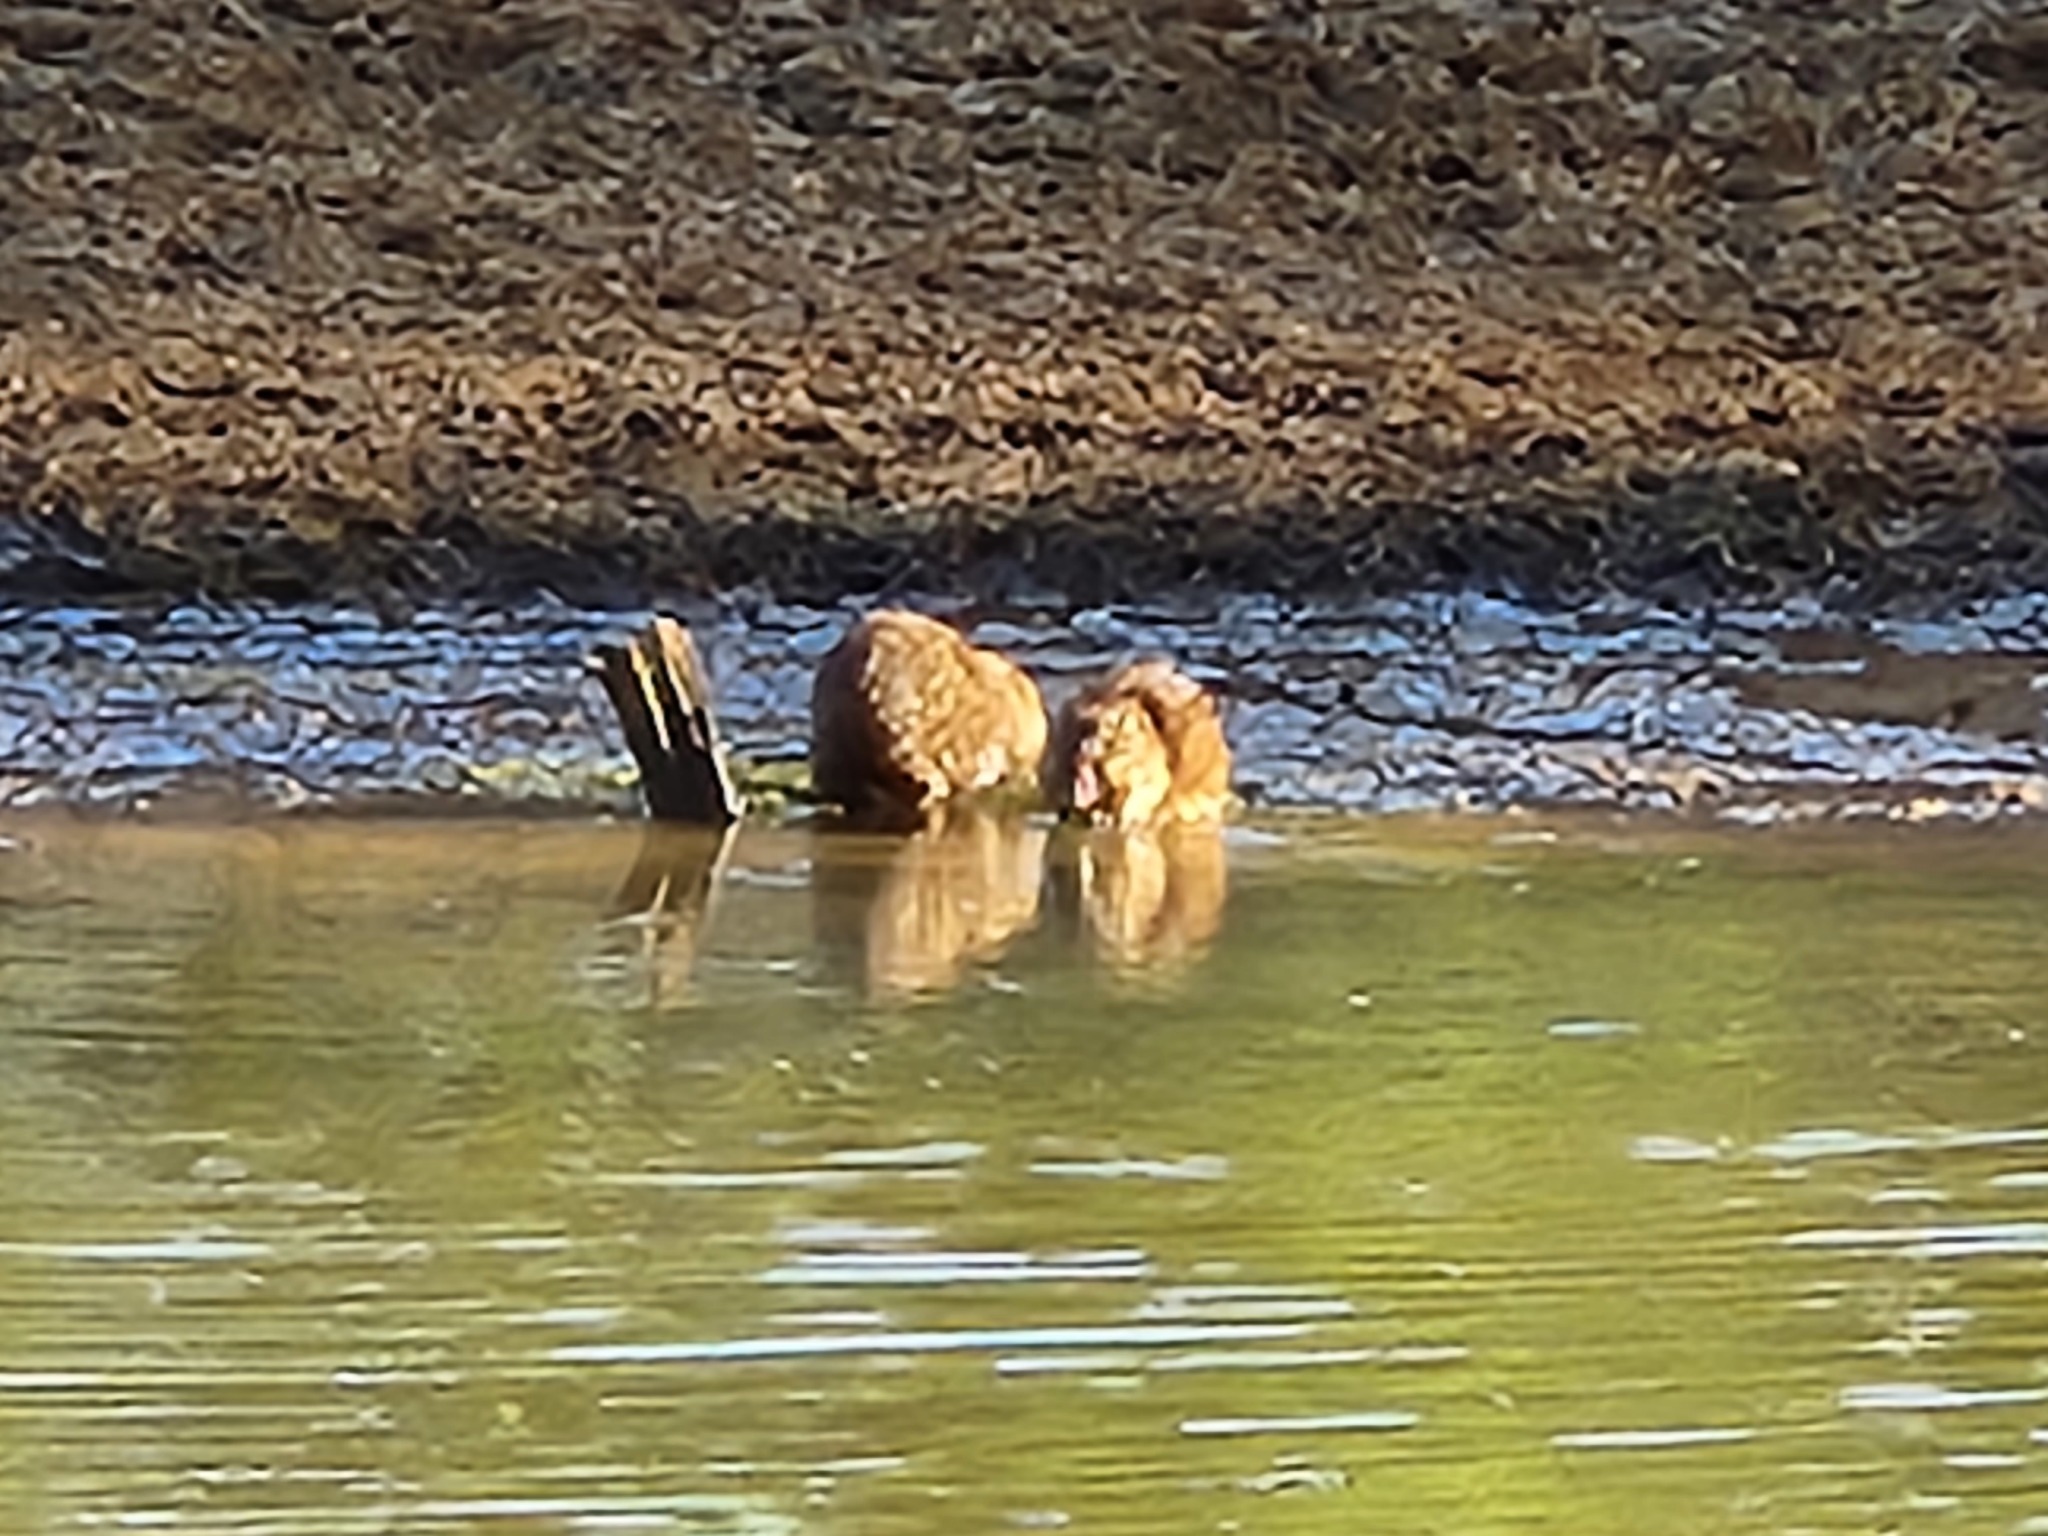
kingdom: Animalia
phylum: Chordata
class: Mammalia
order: Rodentia
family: Cricetidae
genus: Ondatra
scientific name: Ondatra zibethicus
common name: Muskrat
